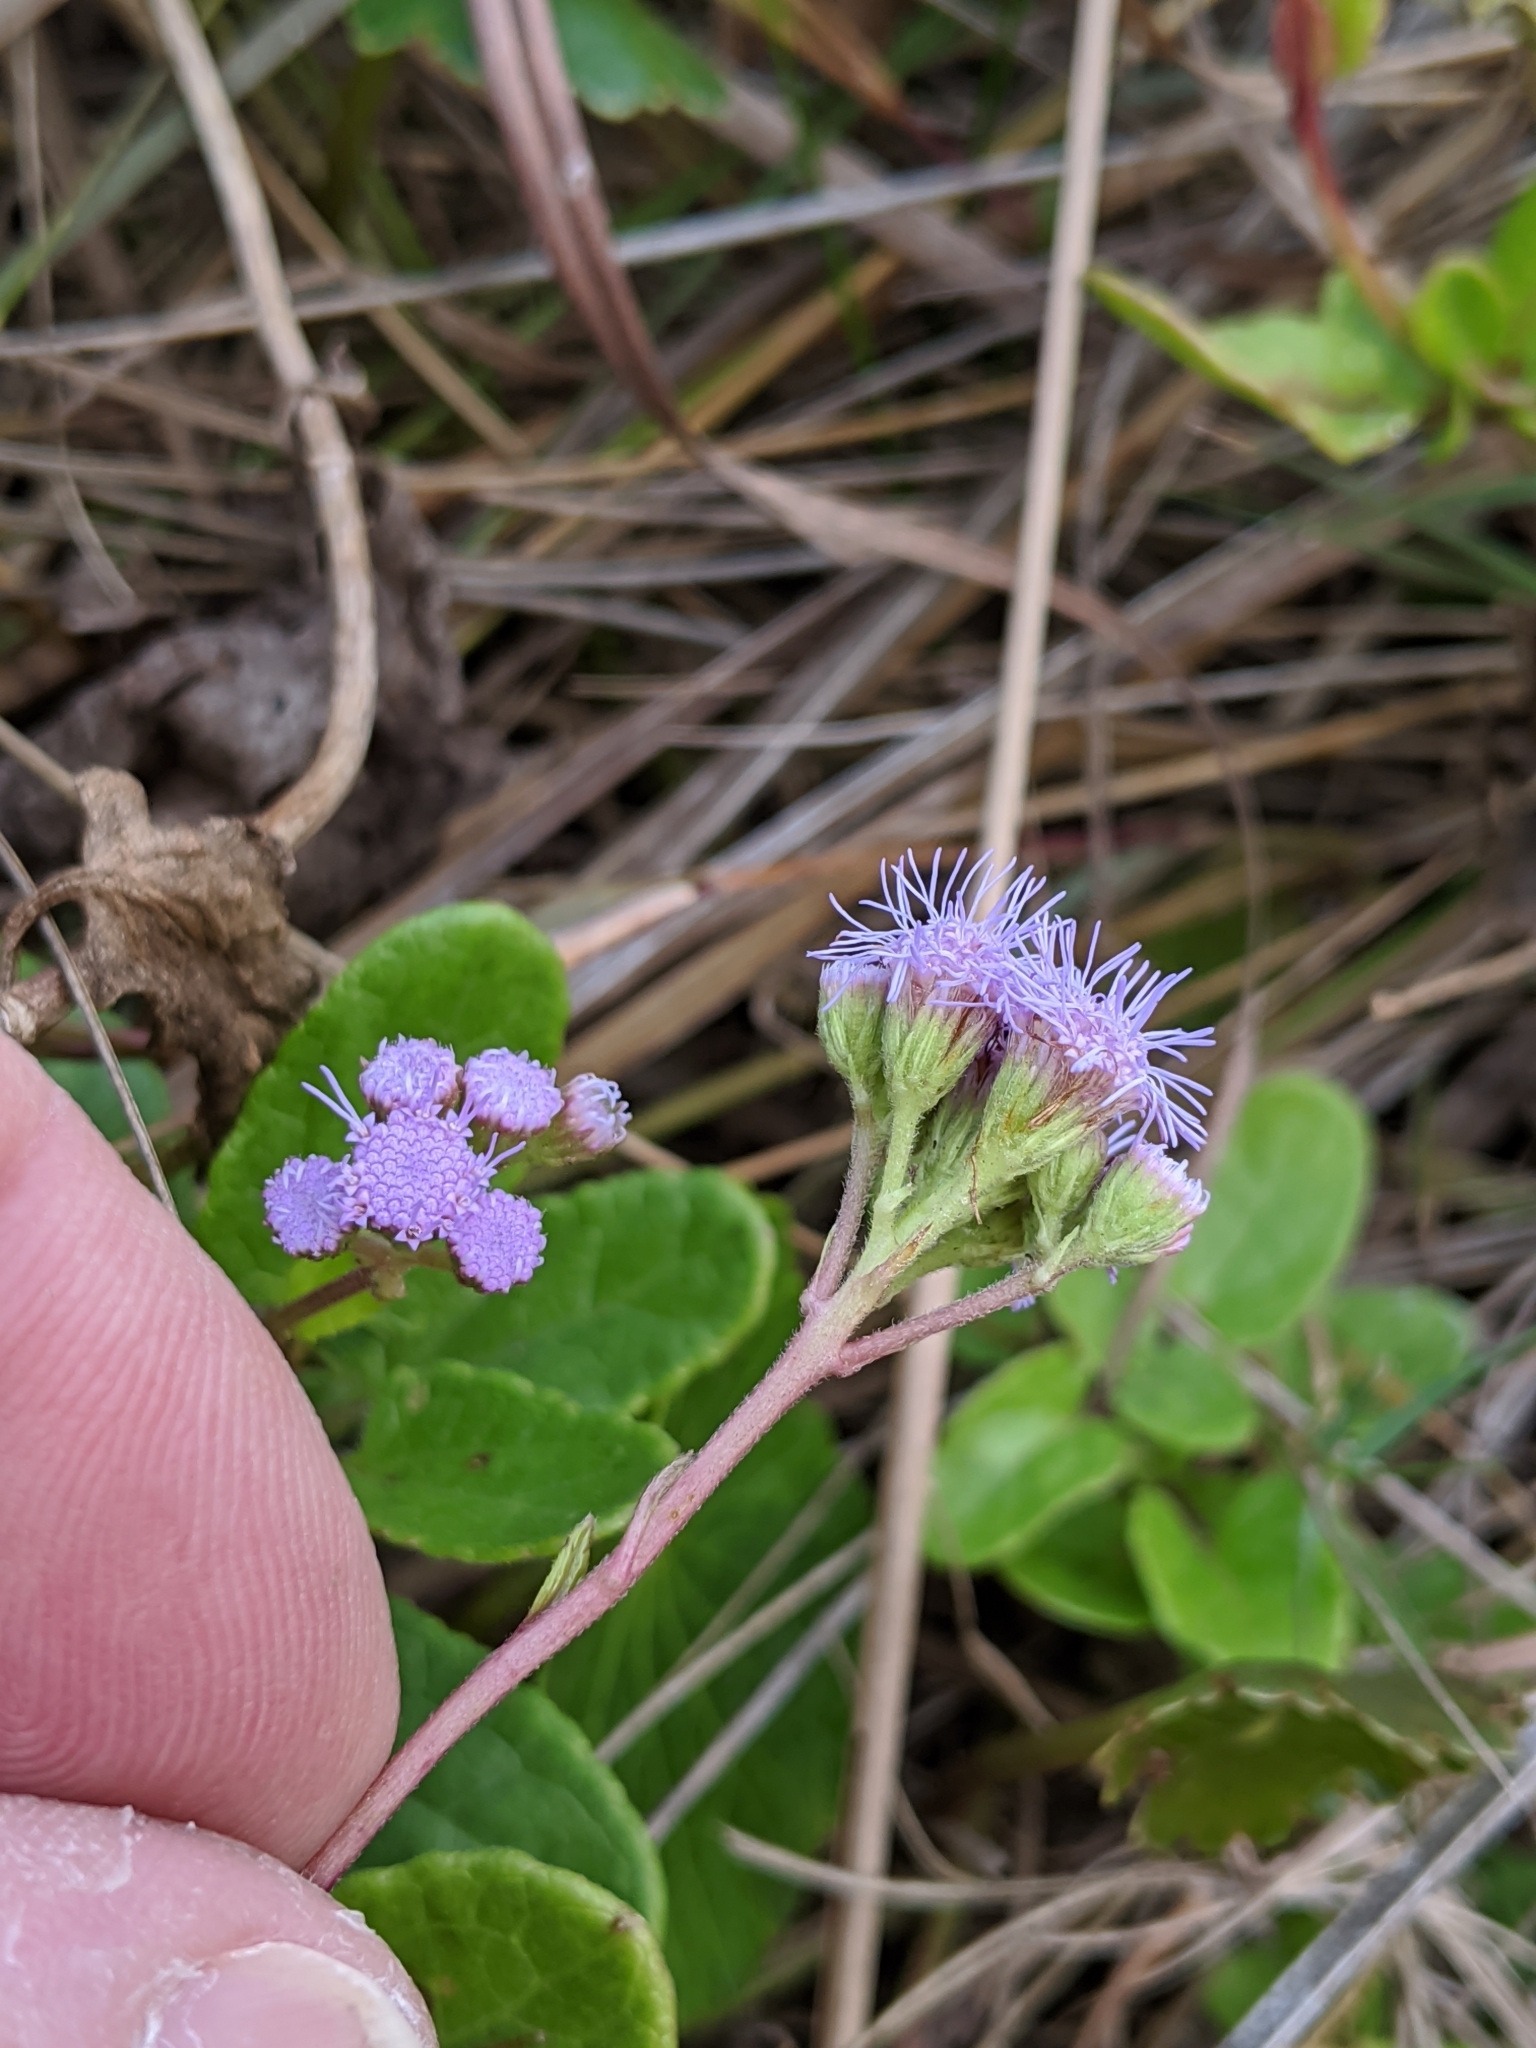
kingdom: Plantae
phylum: Tracheophyta
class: Magnoliopsida
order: Asterales
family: Asteraceae
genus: Conoclinium
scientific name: Conoclinium betonicifolium
